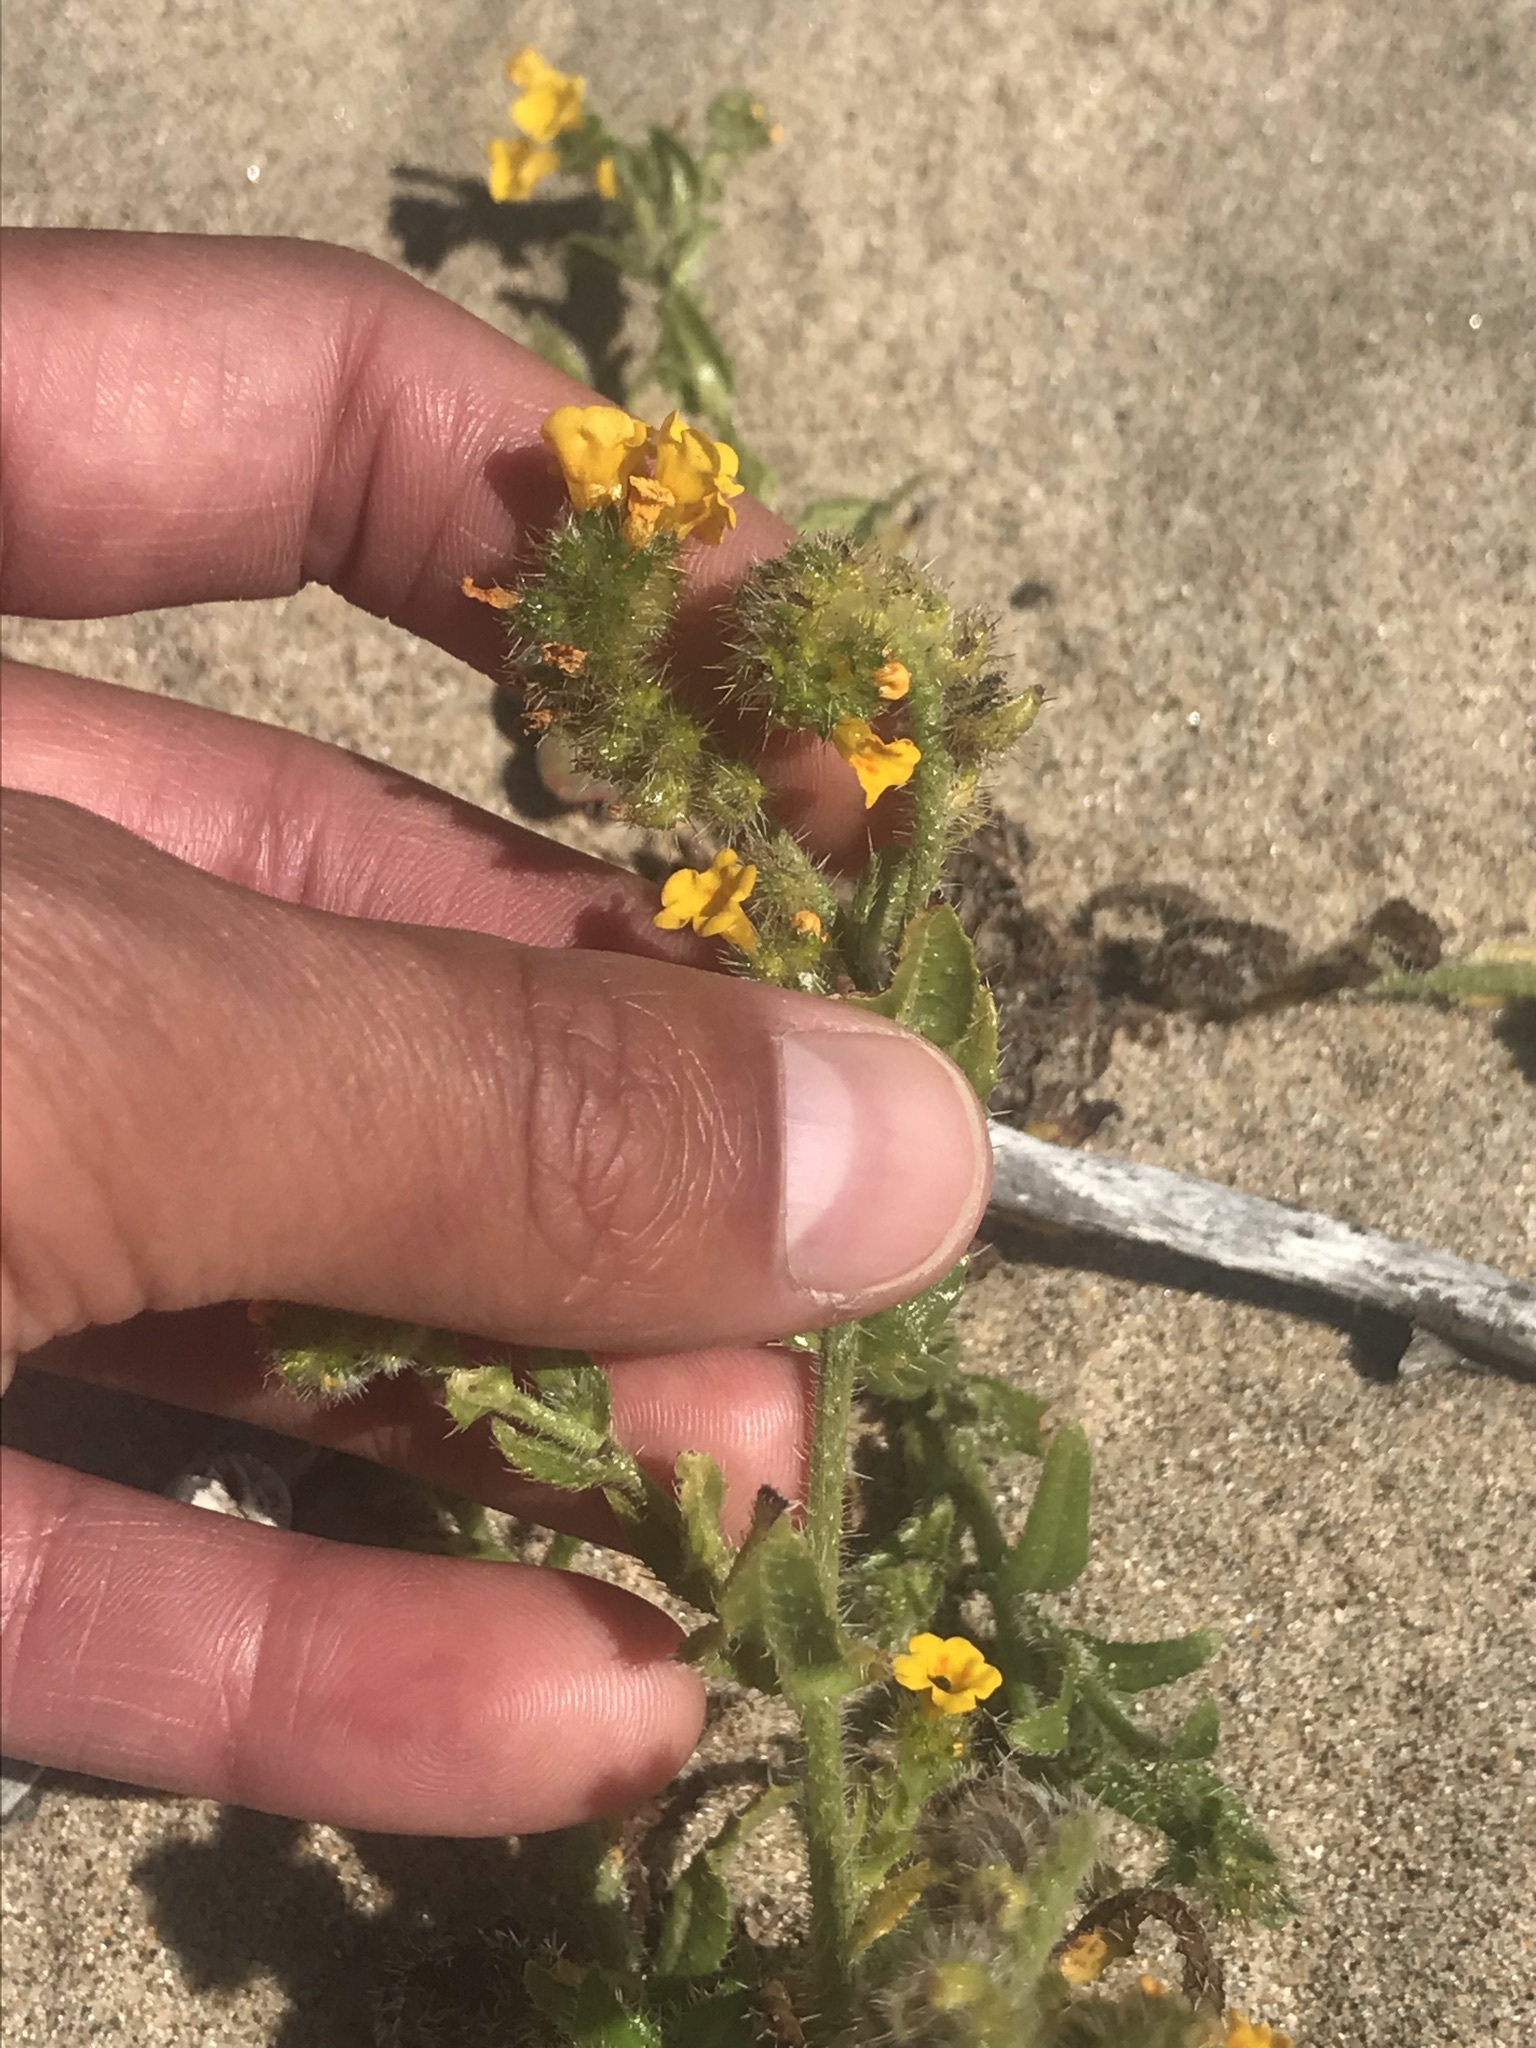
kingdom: Plantae
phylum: Tracheophyta
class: Magnoliopsida
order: Boraginales
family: Boraginaceae
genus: Amsinckia
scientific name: Amsinckia spectabilis
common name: Seaside fiddleneck
